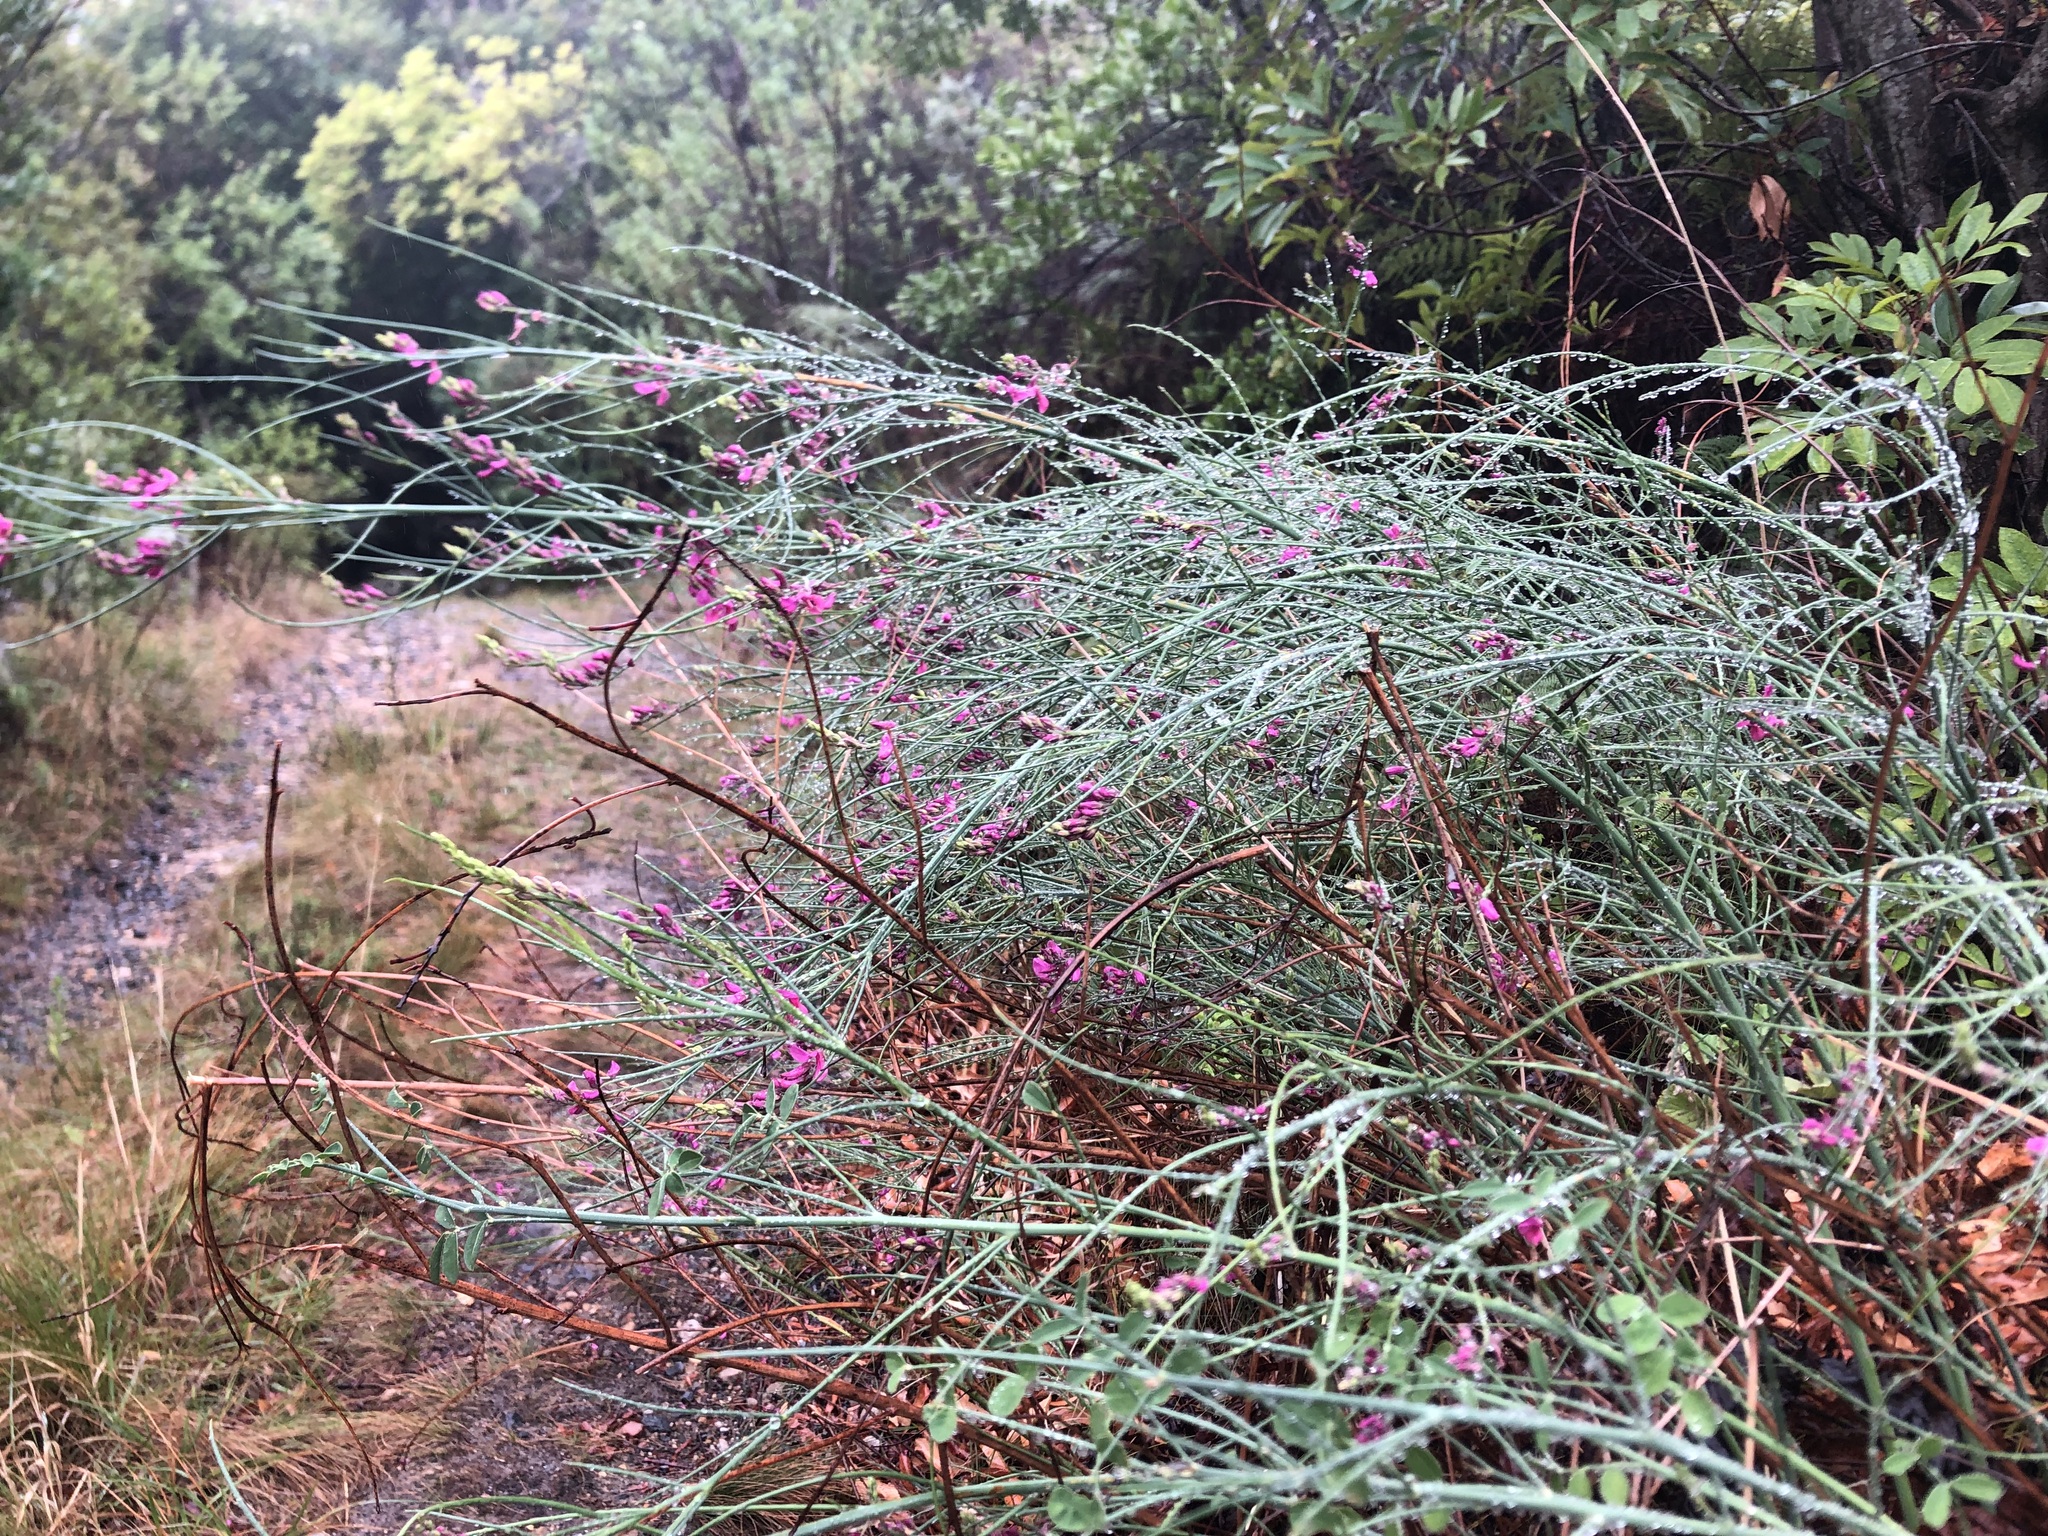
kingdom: Plantae
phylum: Tracheophyta
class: Magnoliopsida
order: Fabales
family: Fabaceae
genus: Indigofera
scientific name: Indigofera filifolia
